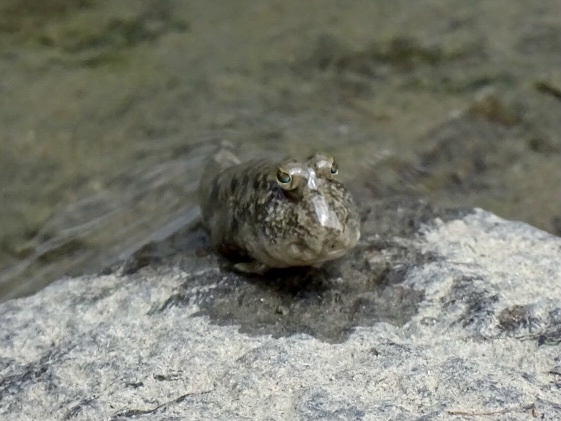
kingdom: Animalia
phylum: Chordata
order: Perciformes
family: Gobiidae
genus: Periophthalmus
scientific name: Periophthalmus modestus
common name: Black goby
